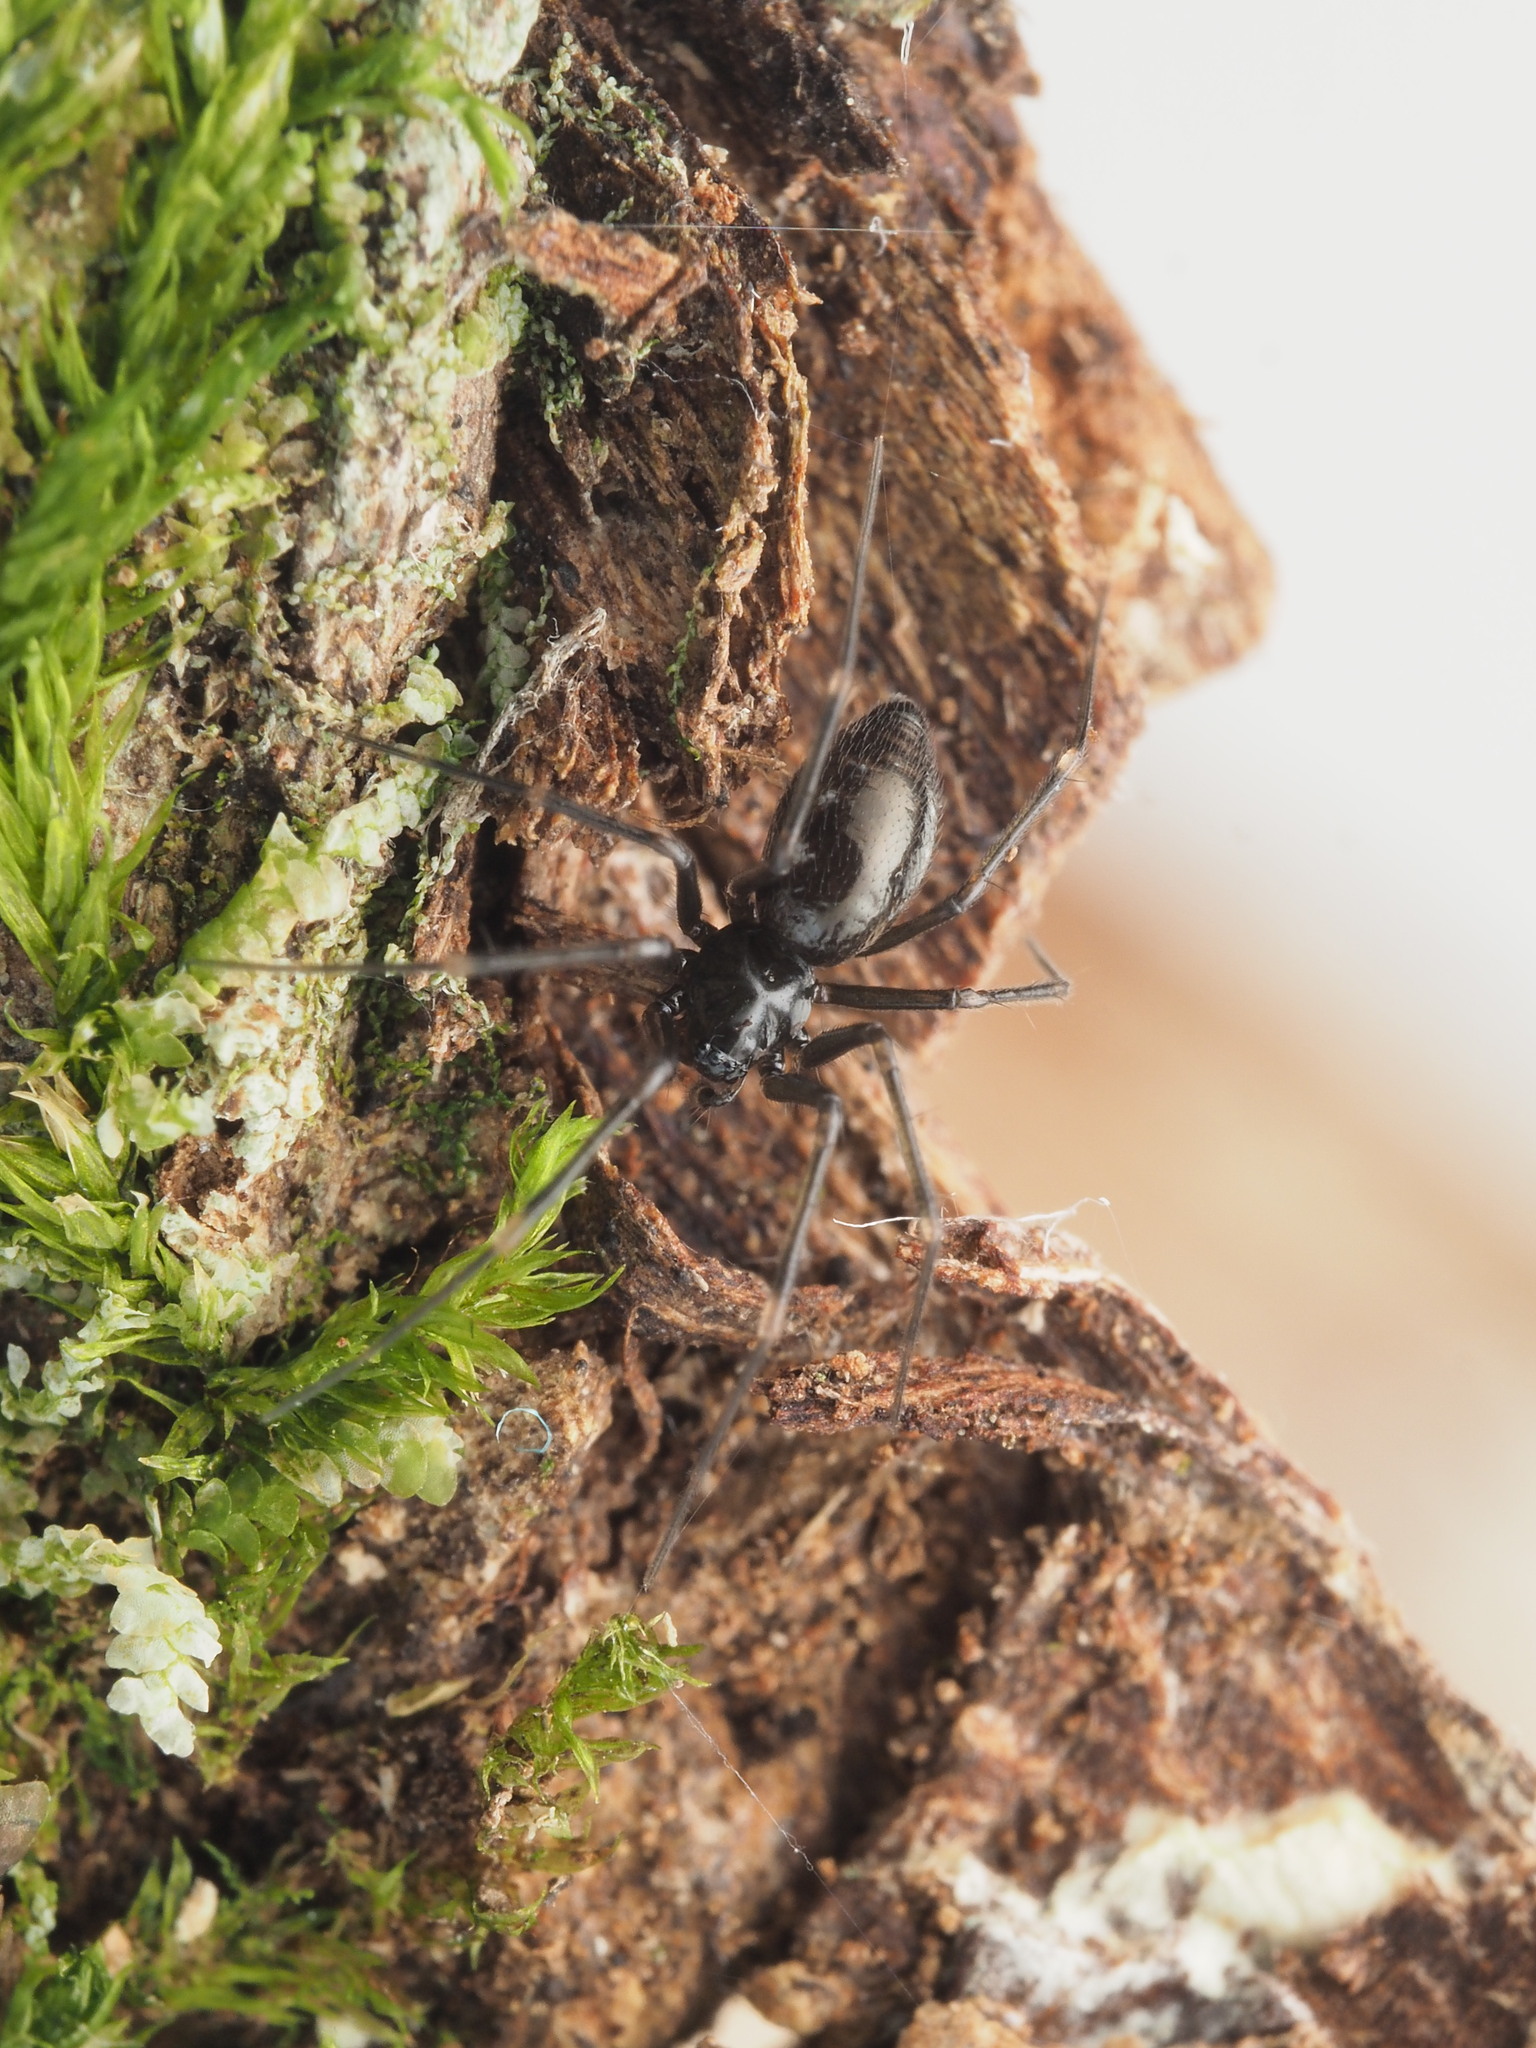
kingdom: Animalia
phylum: Arthropoda
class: Arachnida
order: Araneae
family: Linyphiidae
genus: Laetesia
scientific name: Laetesia
